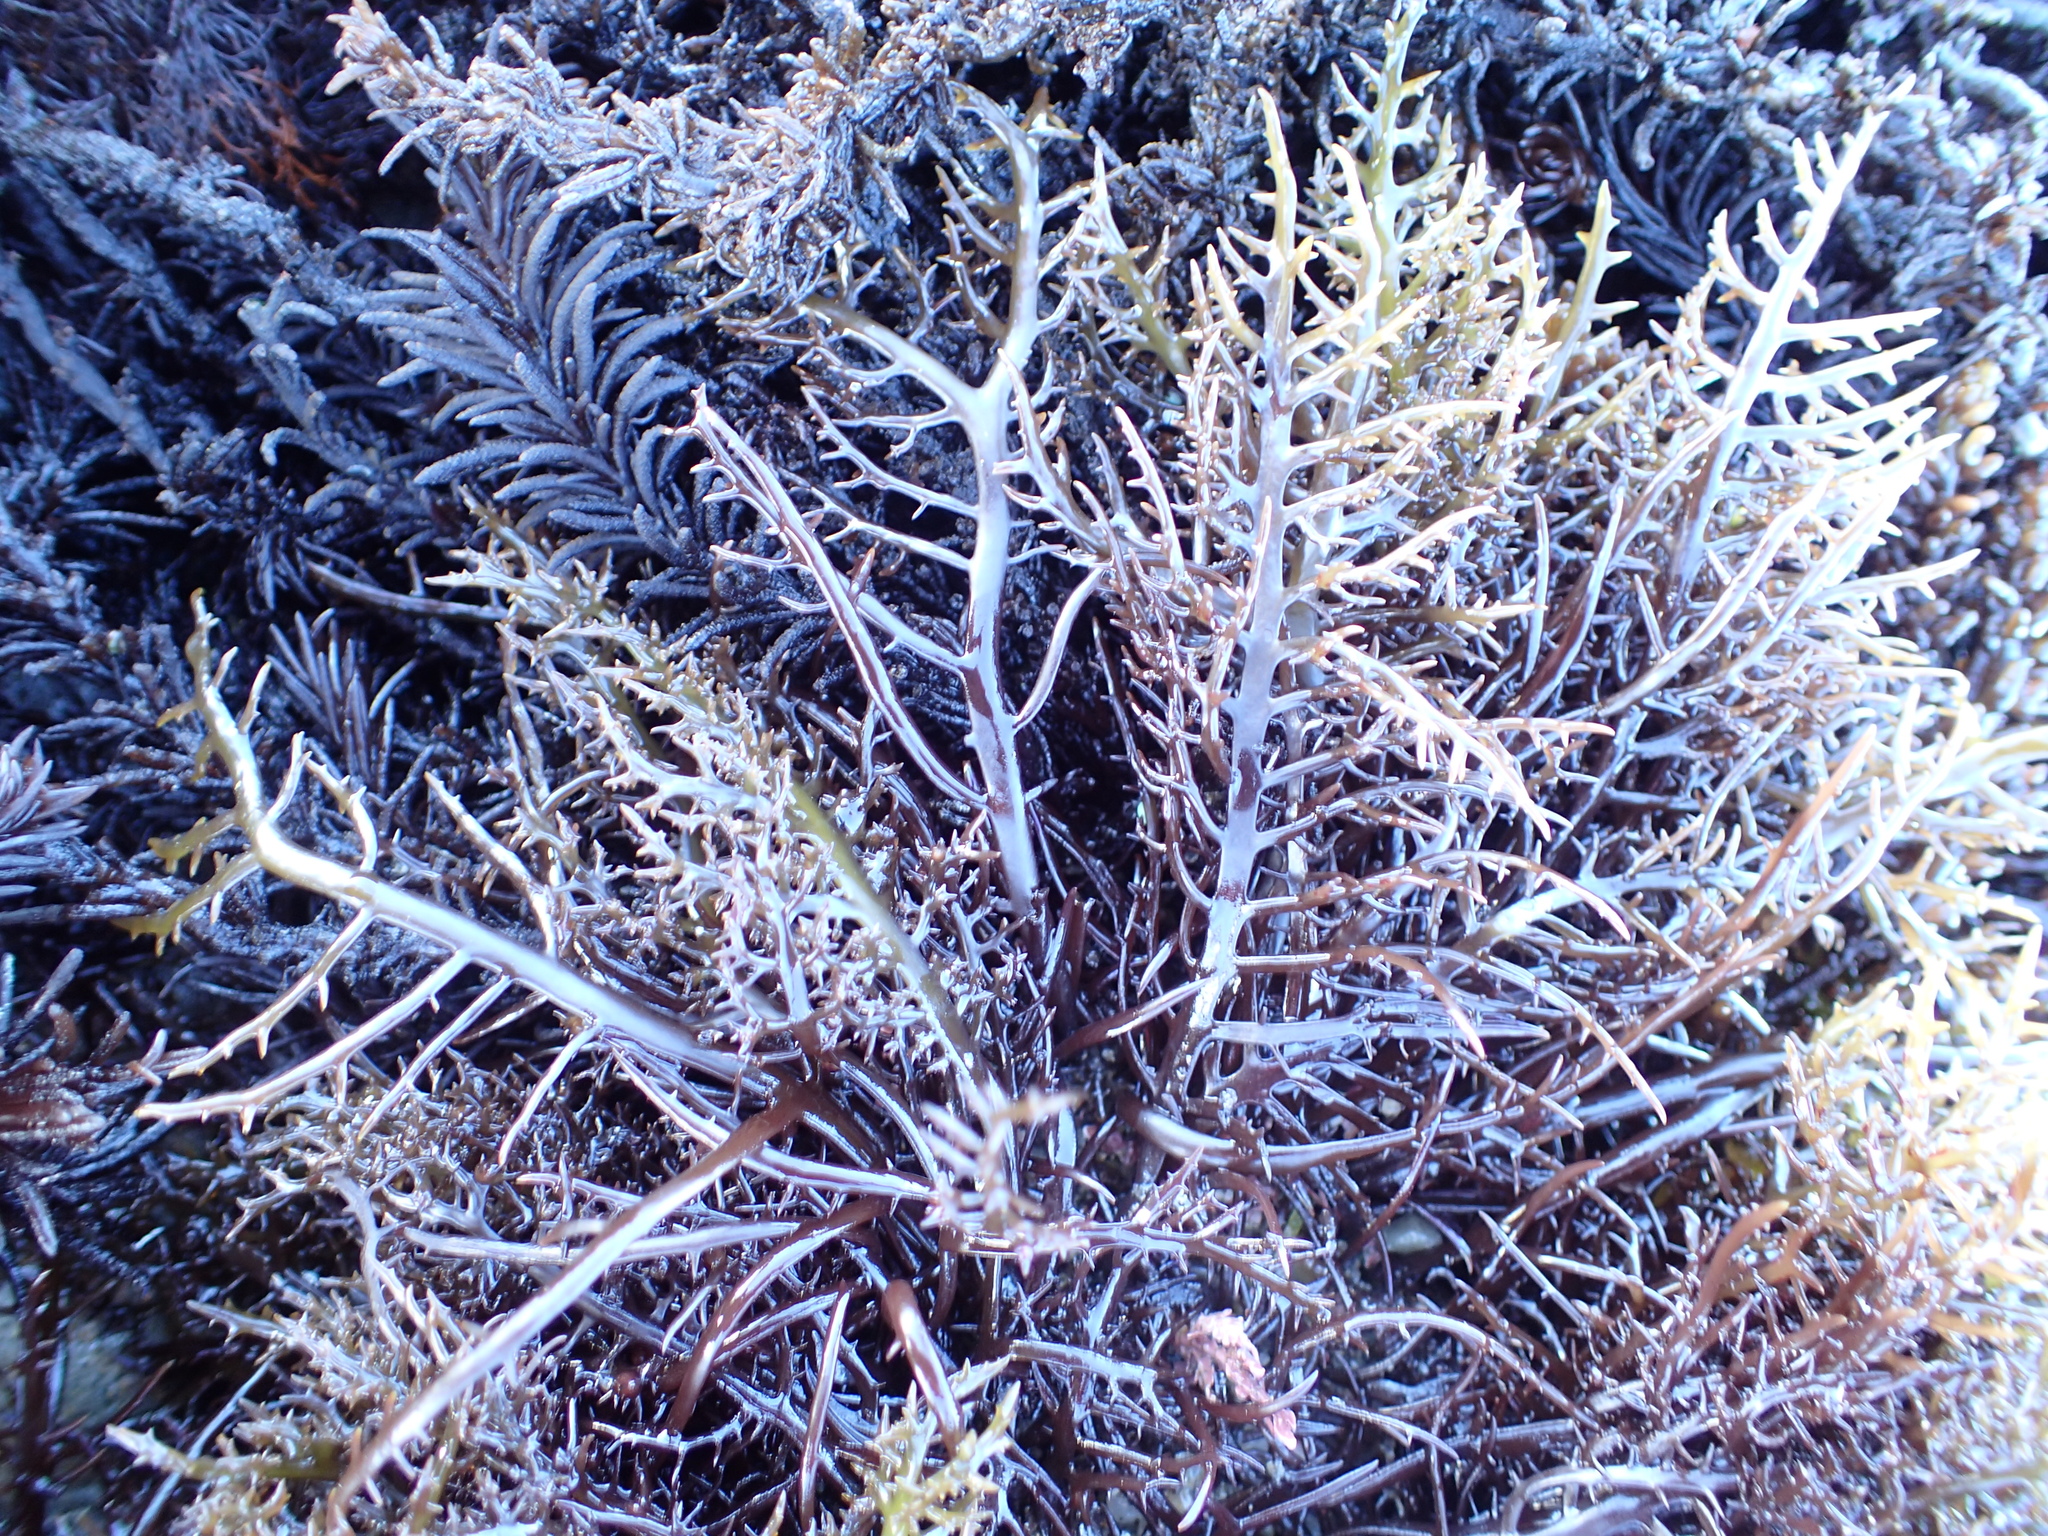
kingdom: Plantae
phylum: Rhodophyta
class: Florideophyceae
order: Gigartinales
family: Gigartinaceae
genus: Chondracanthus
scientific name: Chondracanthus canaliculatus
